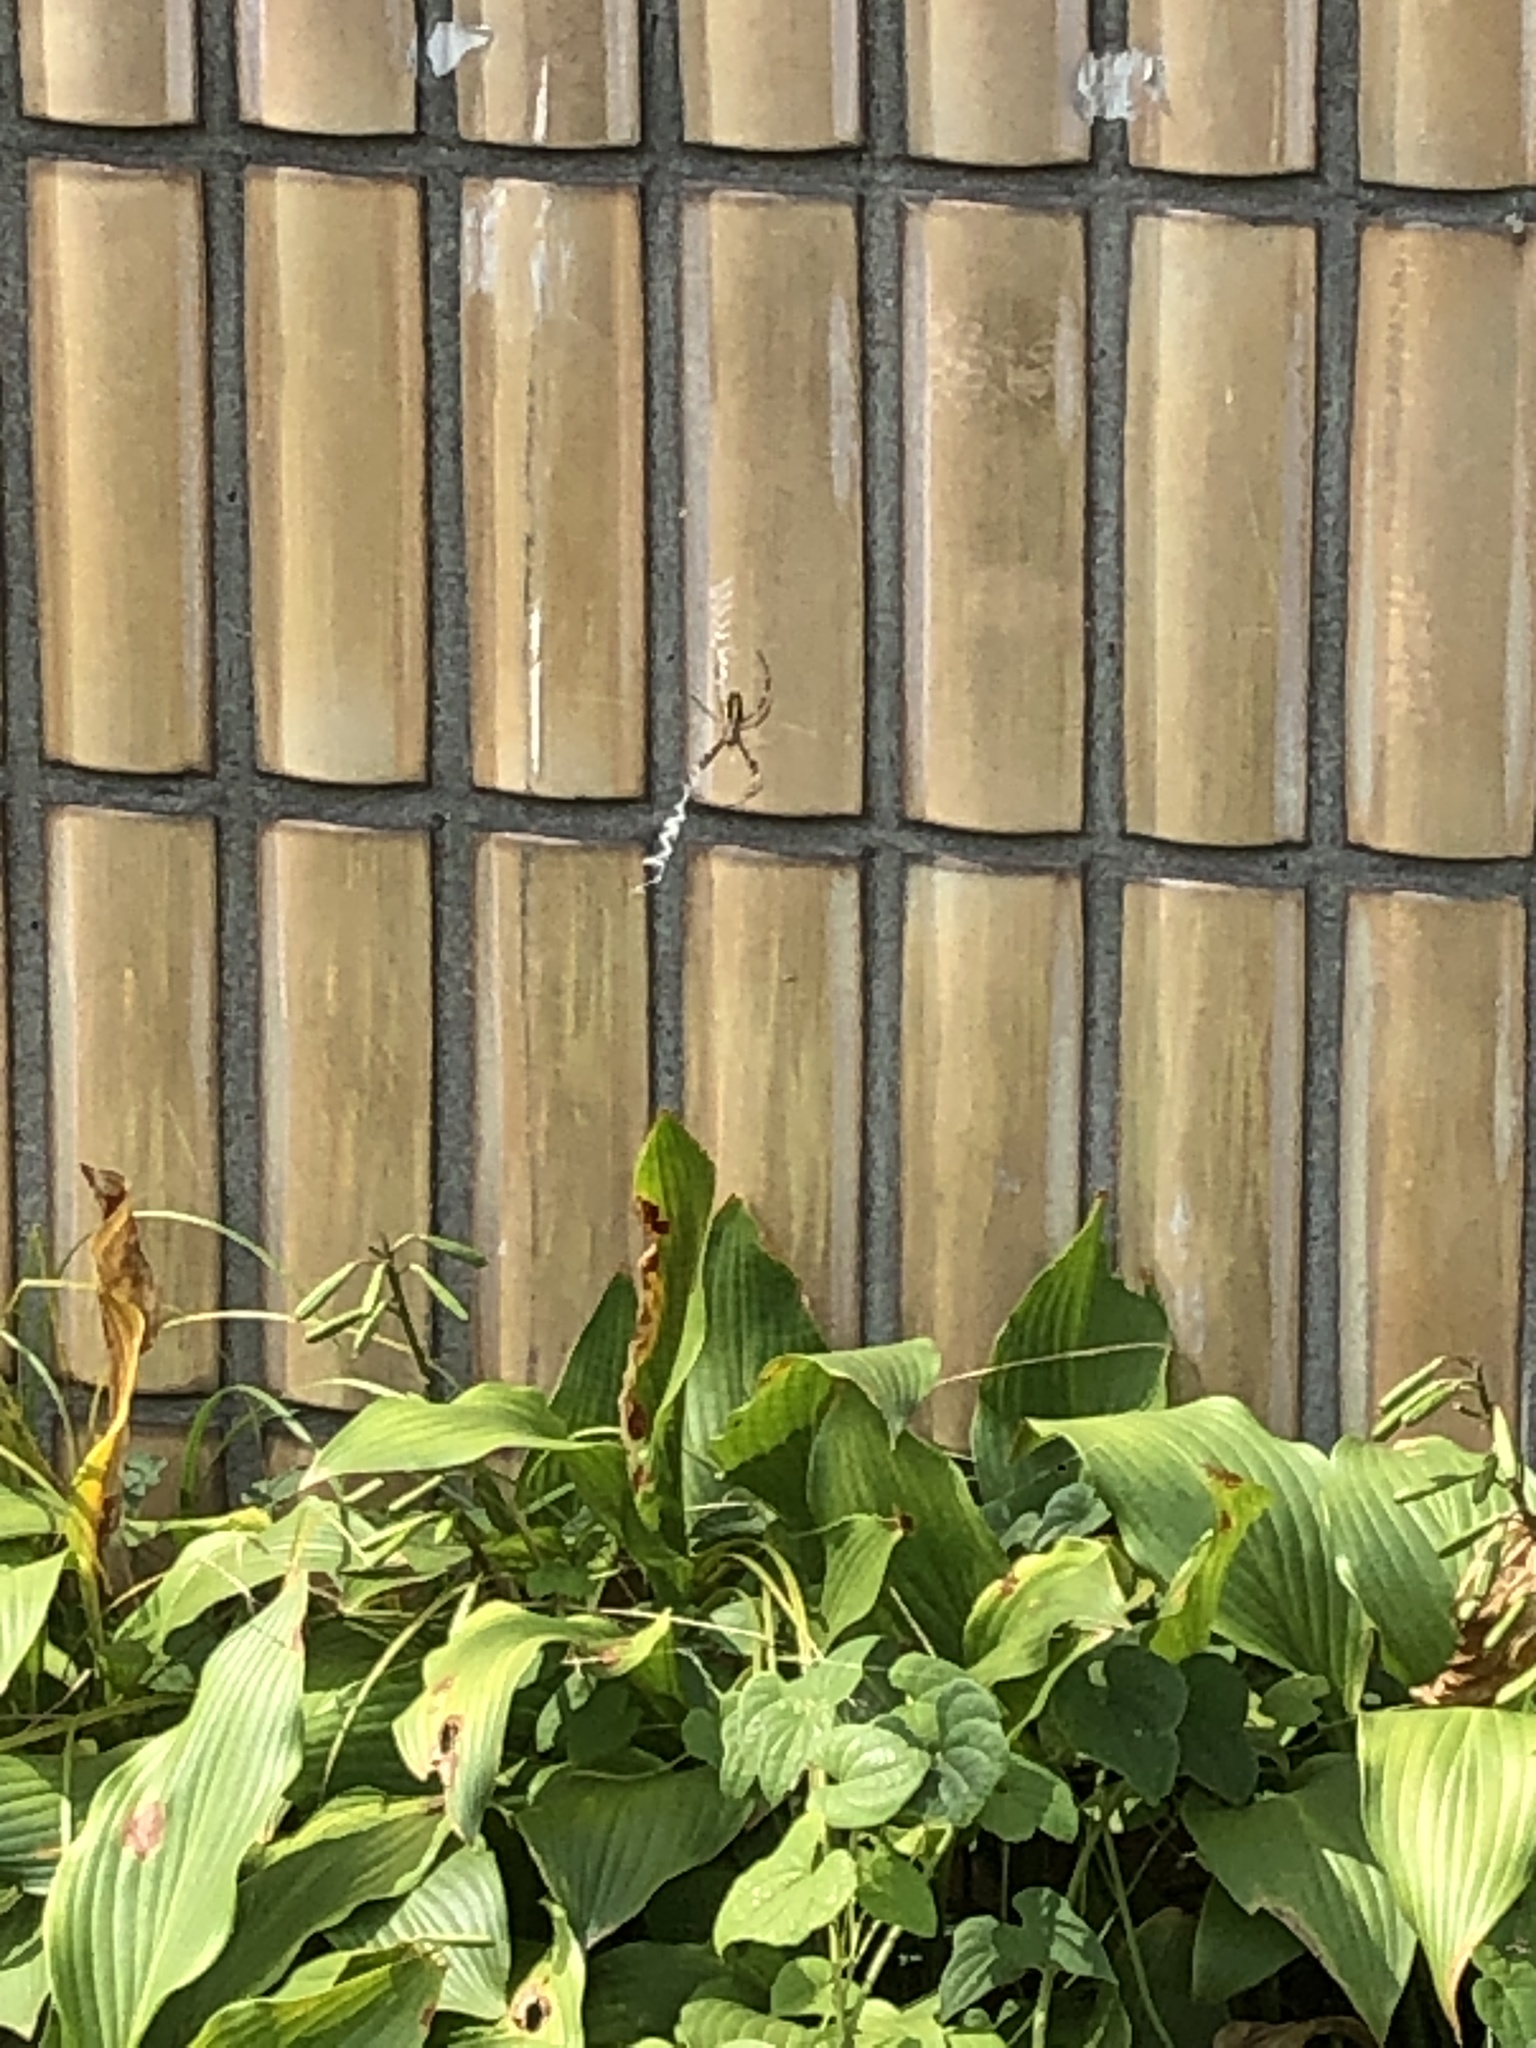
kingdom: Animalia
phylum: Arthropoda
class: Arachnida
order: Araneae
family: Araneidae
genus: Argiope
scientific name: Argiope bruennichi
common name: Wasp spider
